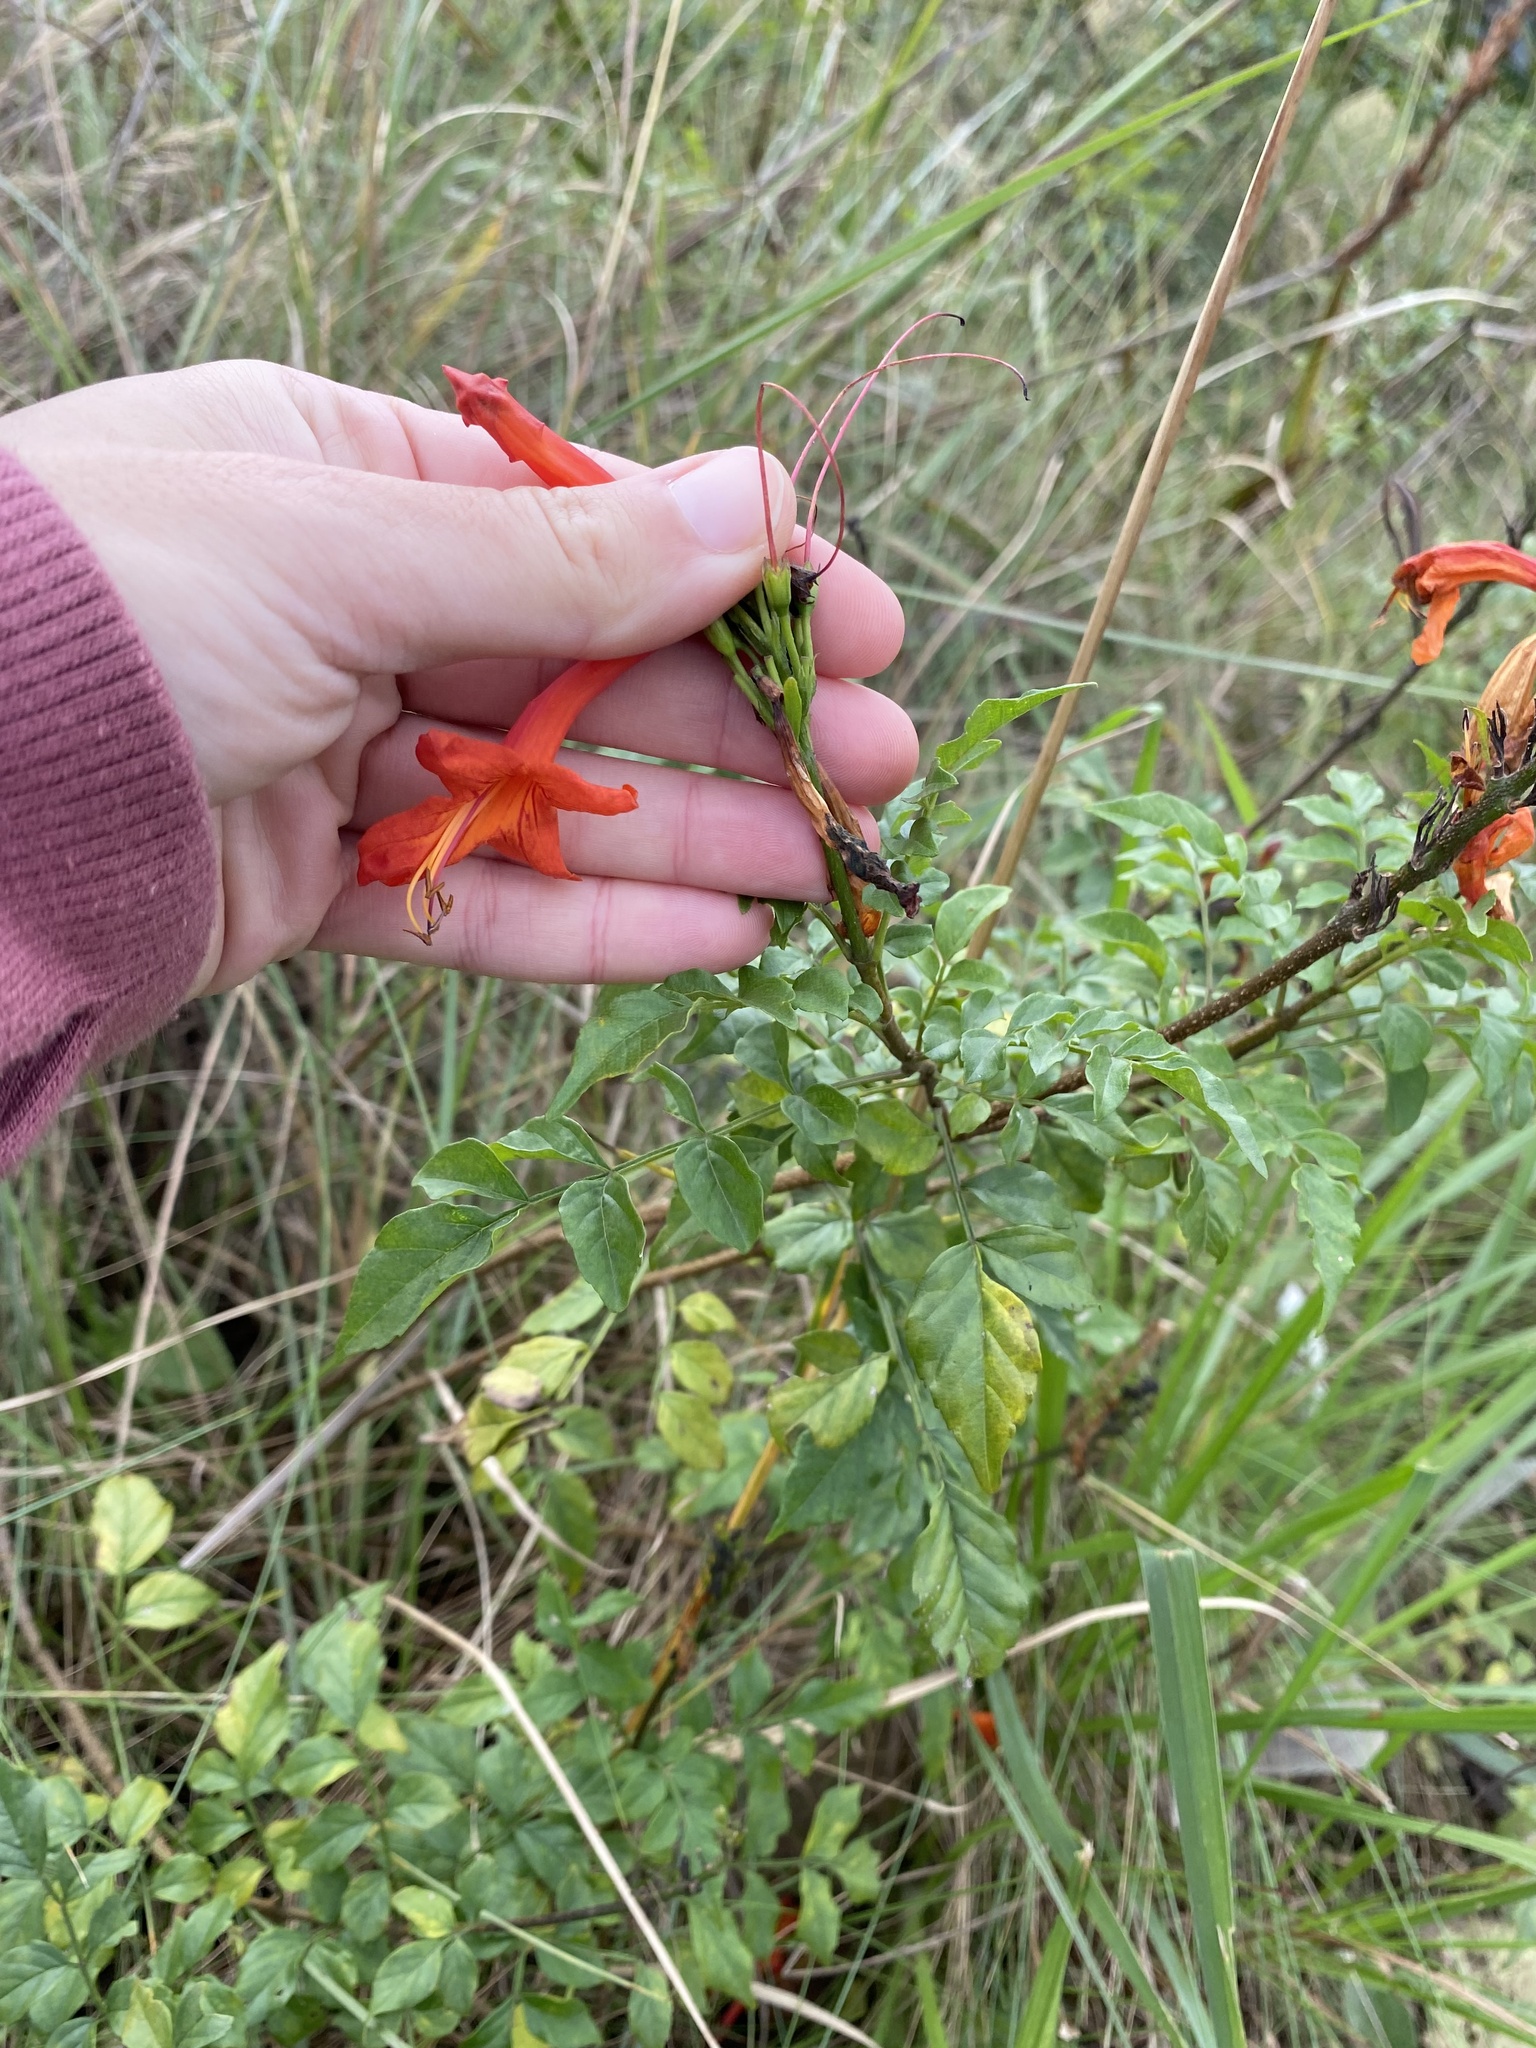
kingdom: Plantae
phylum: Tracheophyta
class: Magnoliopsida
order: Lamiales
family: Bignoniaceae
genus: Tecomaria
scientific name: Tecomaria capensis
